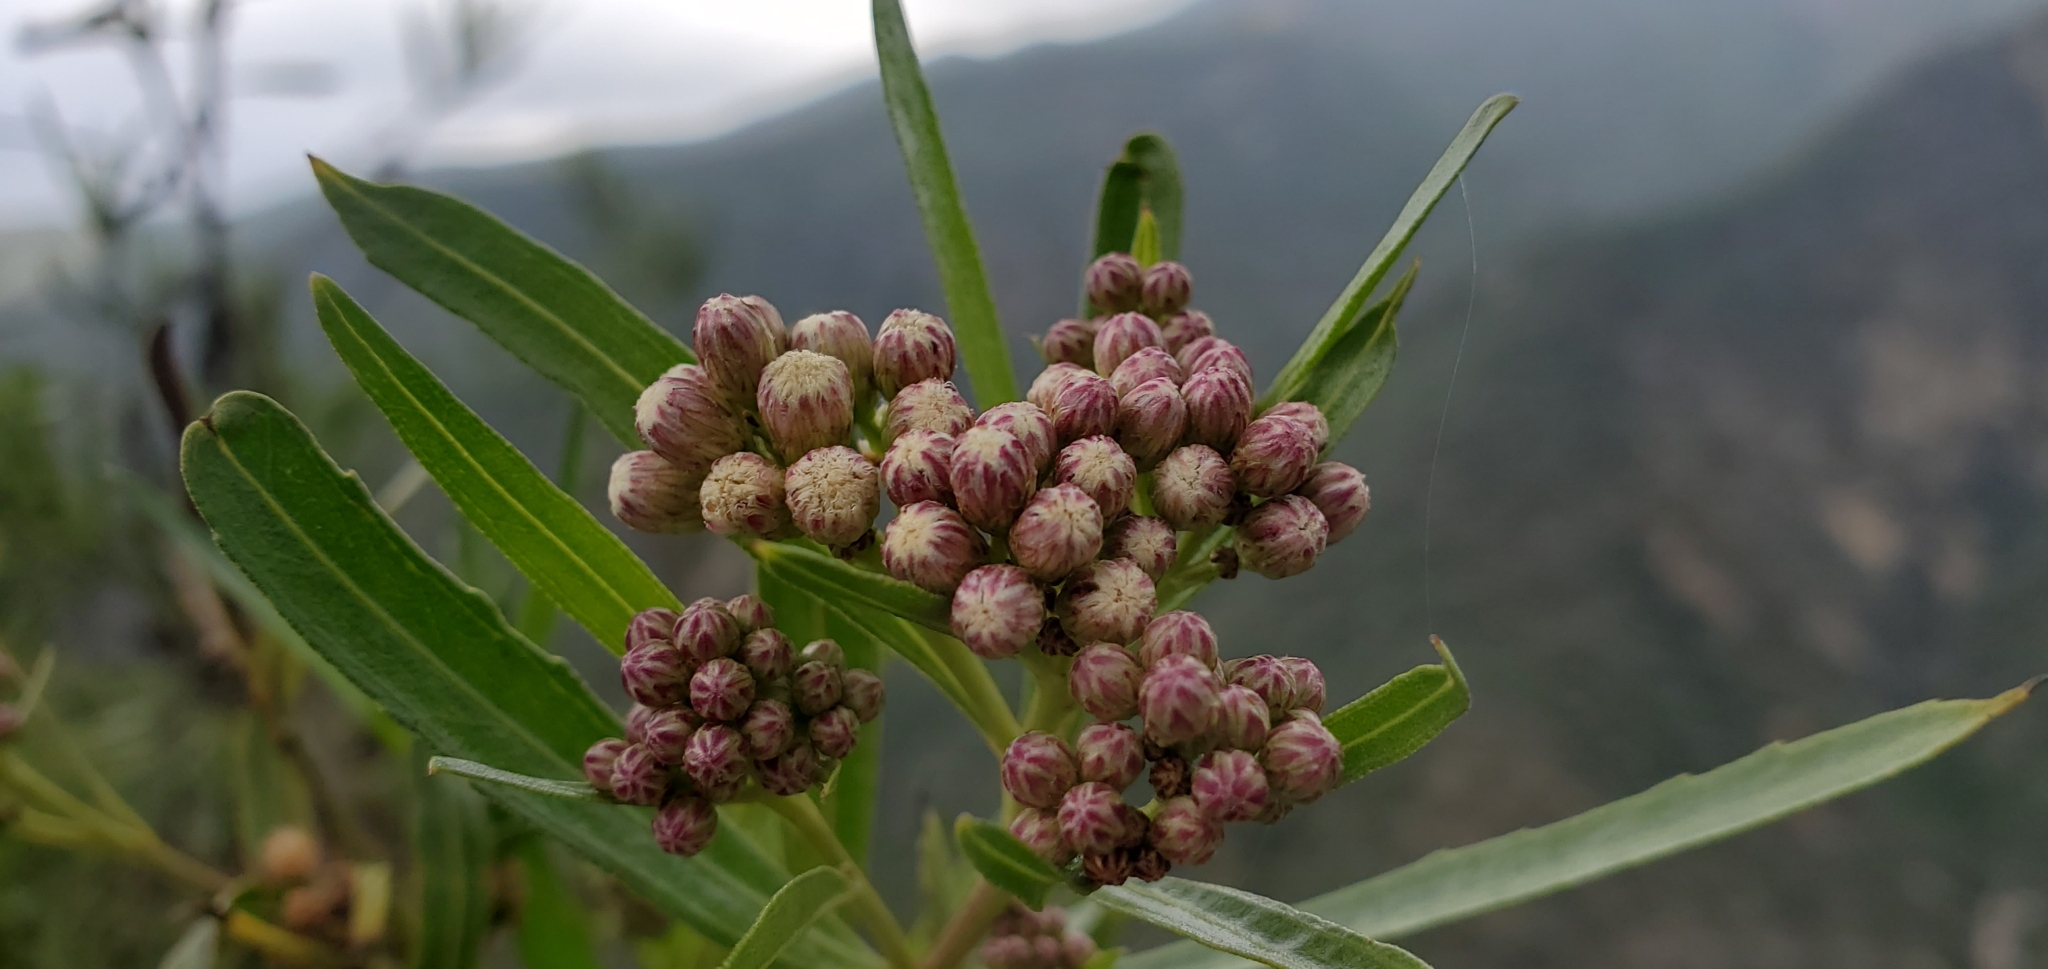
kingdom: Plantae
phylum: Tracheophyta
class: Magnoliopsida
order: Asterales
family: Asteraceae
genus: Baccharis
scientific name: Baccharis salicifolia
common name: Sticky baccharis
